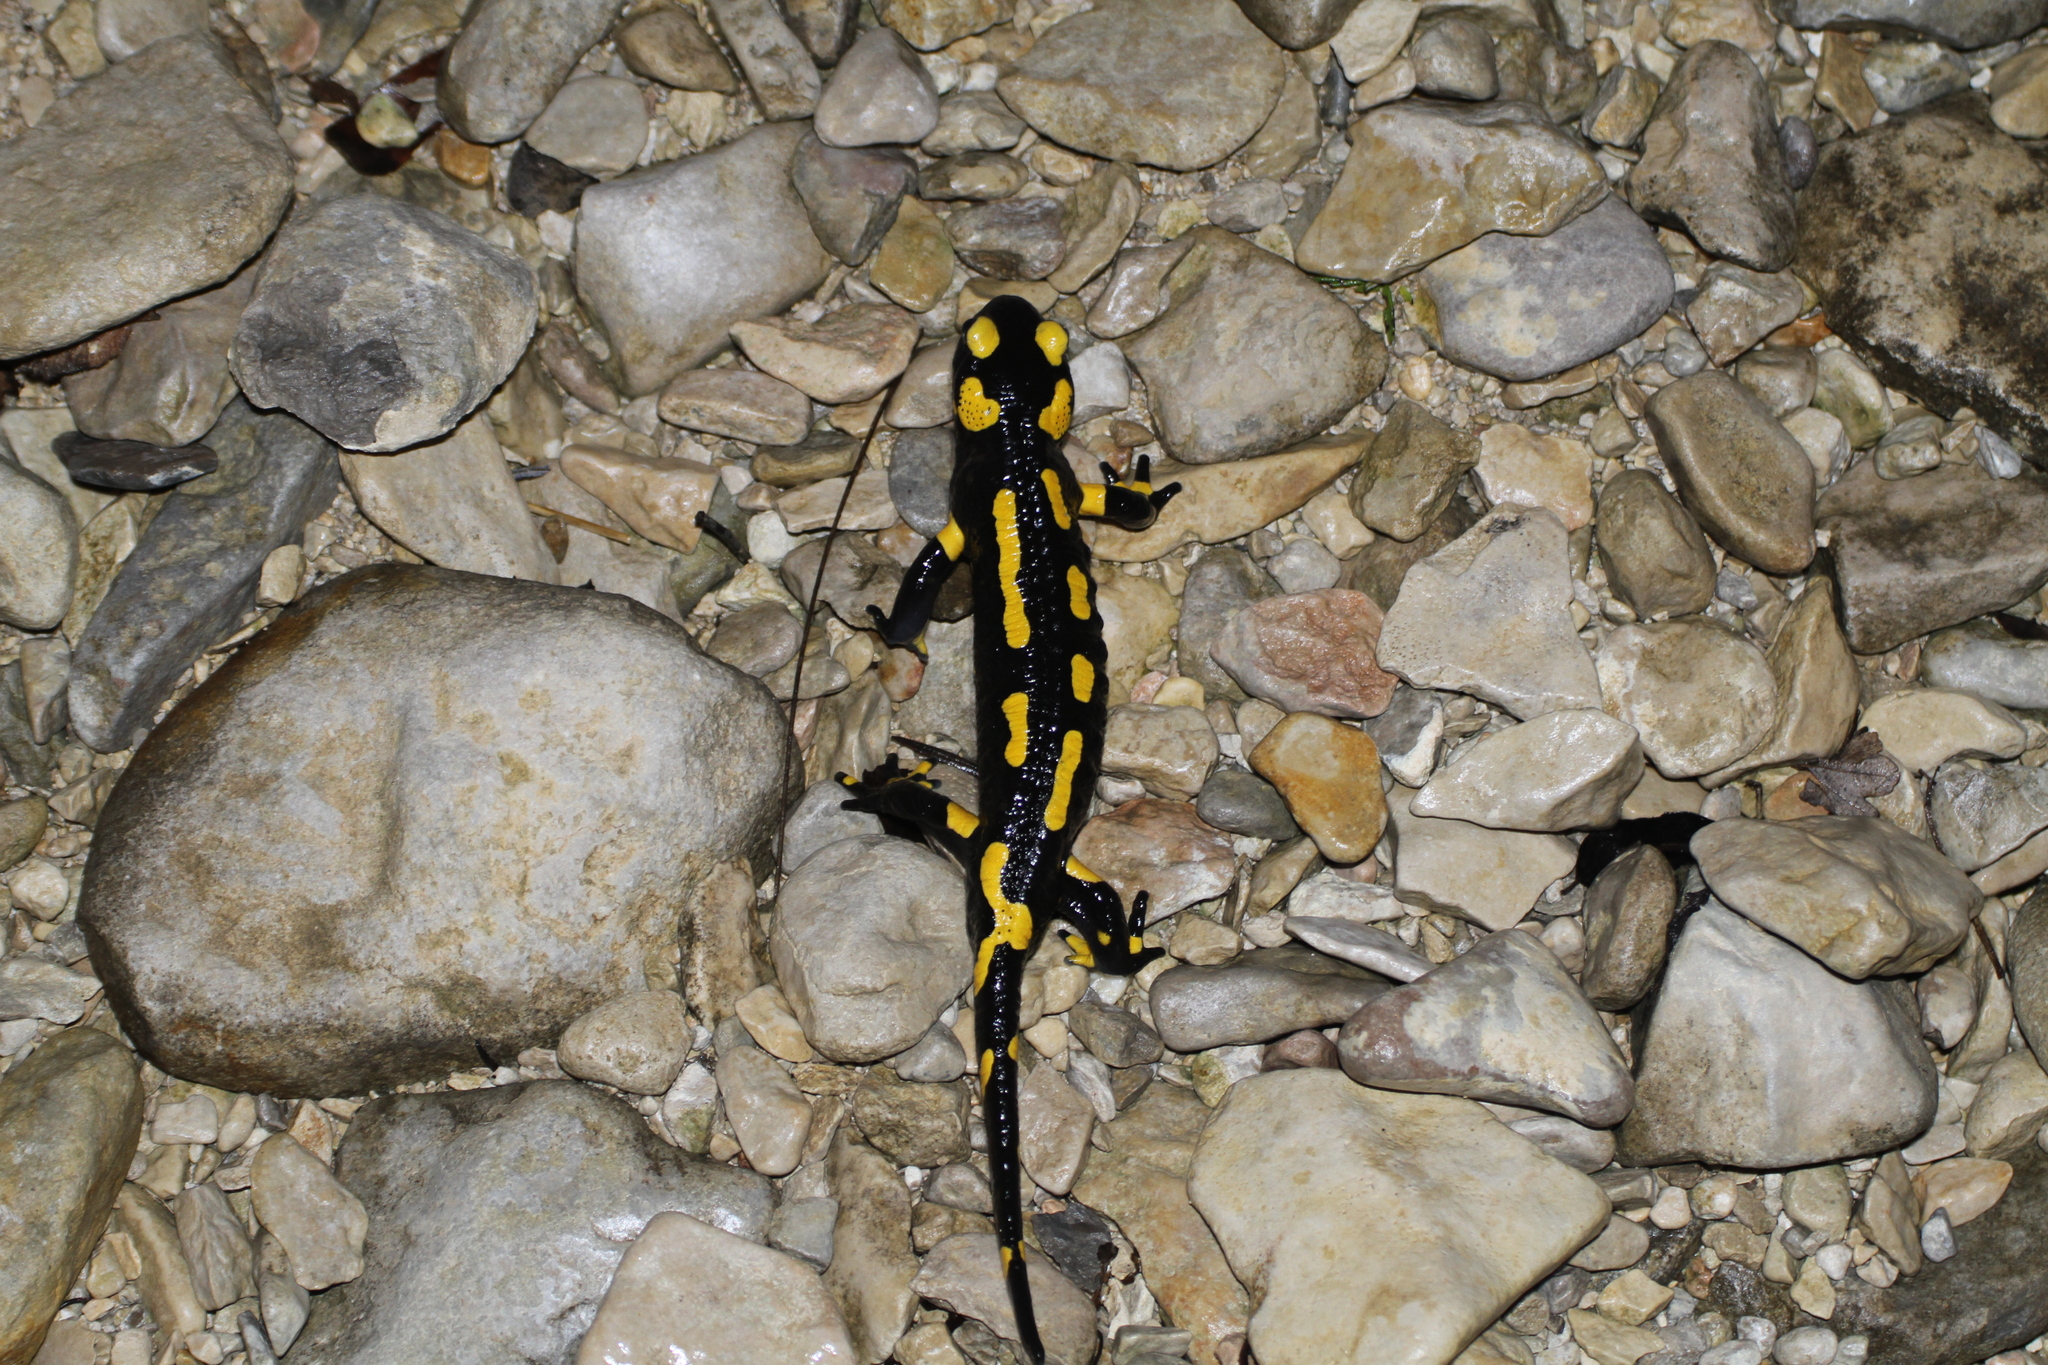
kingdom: Animalia
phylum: Chordata
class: Amphibia
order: Caudata
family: Salamandridae
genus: Salamandra
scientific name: Salamandra salamandra
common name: Fire salamander
